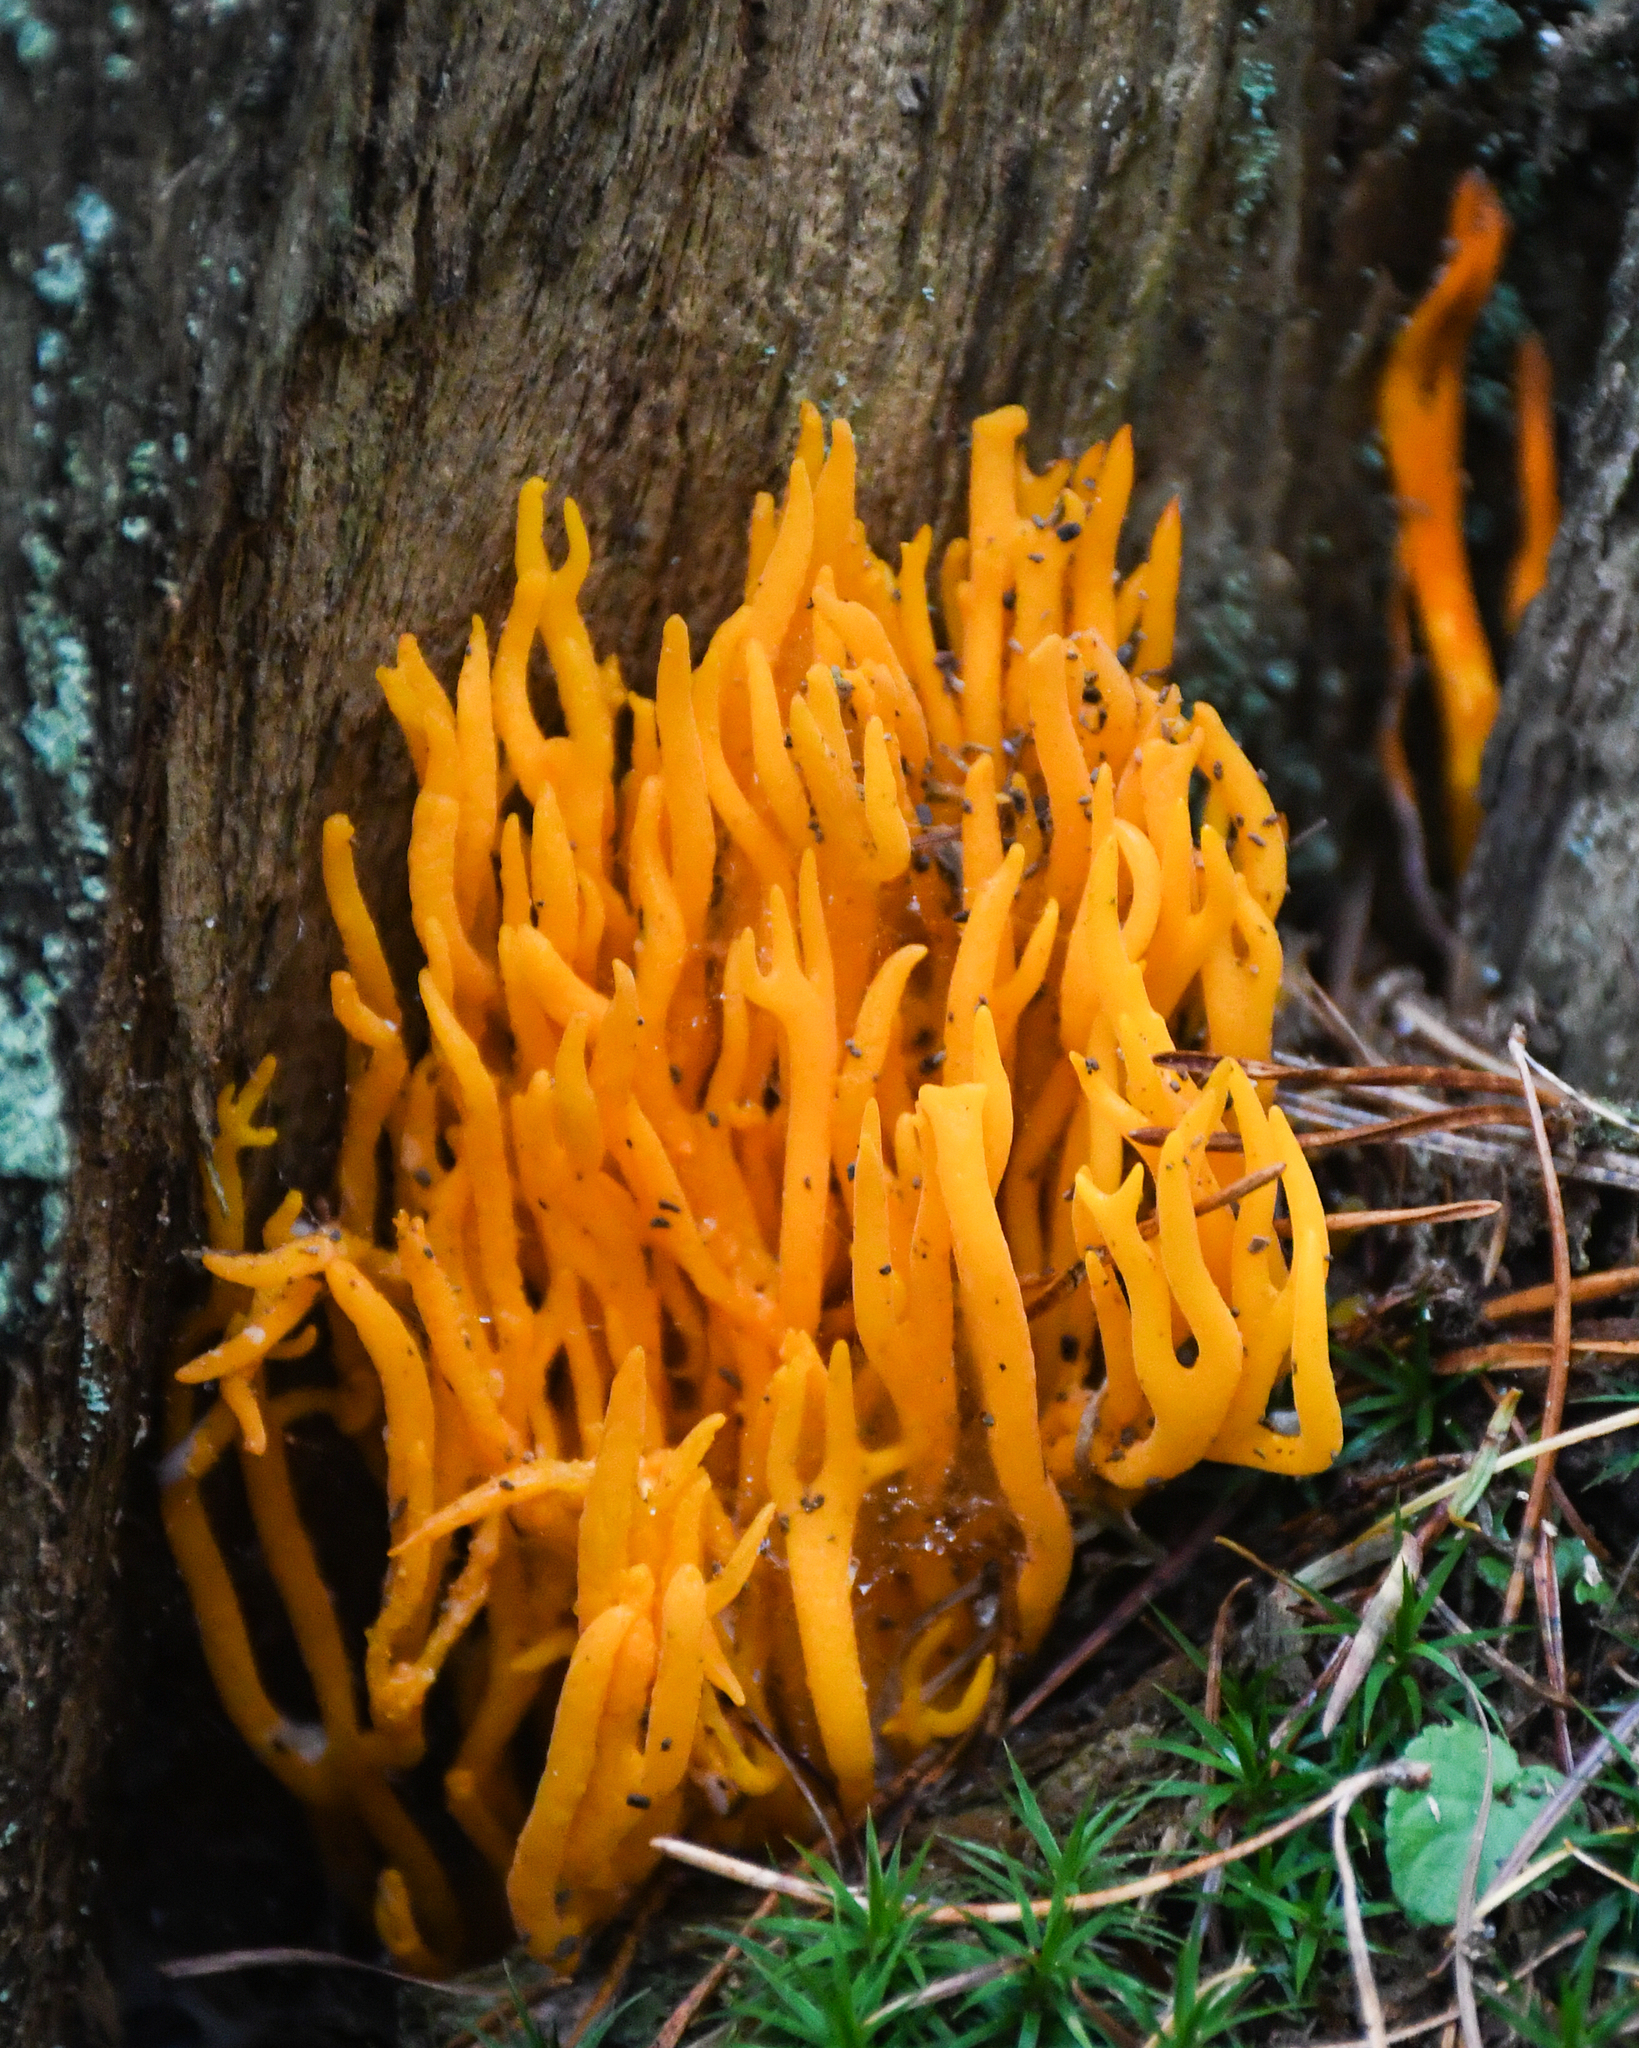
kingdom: Fungi
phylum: Basidiomycota
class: Dacrymycetes
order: Dacrymycetales
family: Dacrymycetaceae
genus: Calocera
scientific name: Calocera viscosa
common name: Yellow stagshorn
